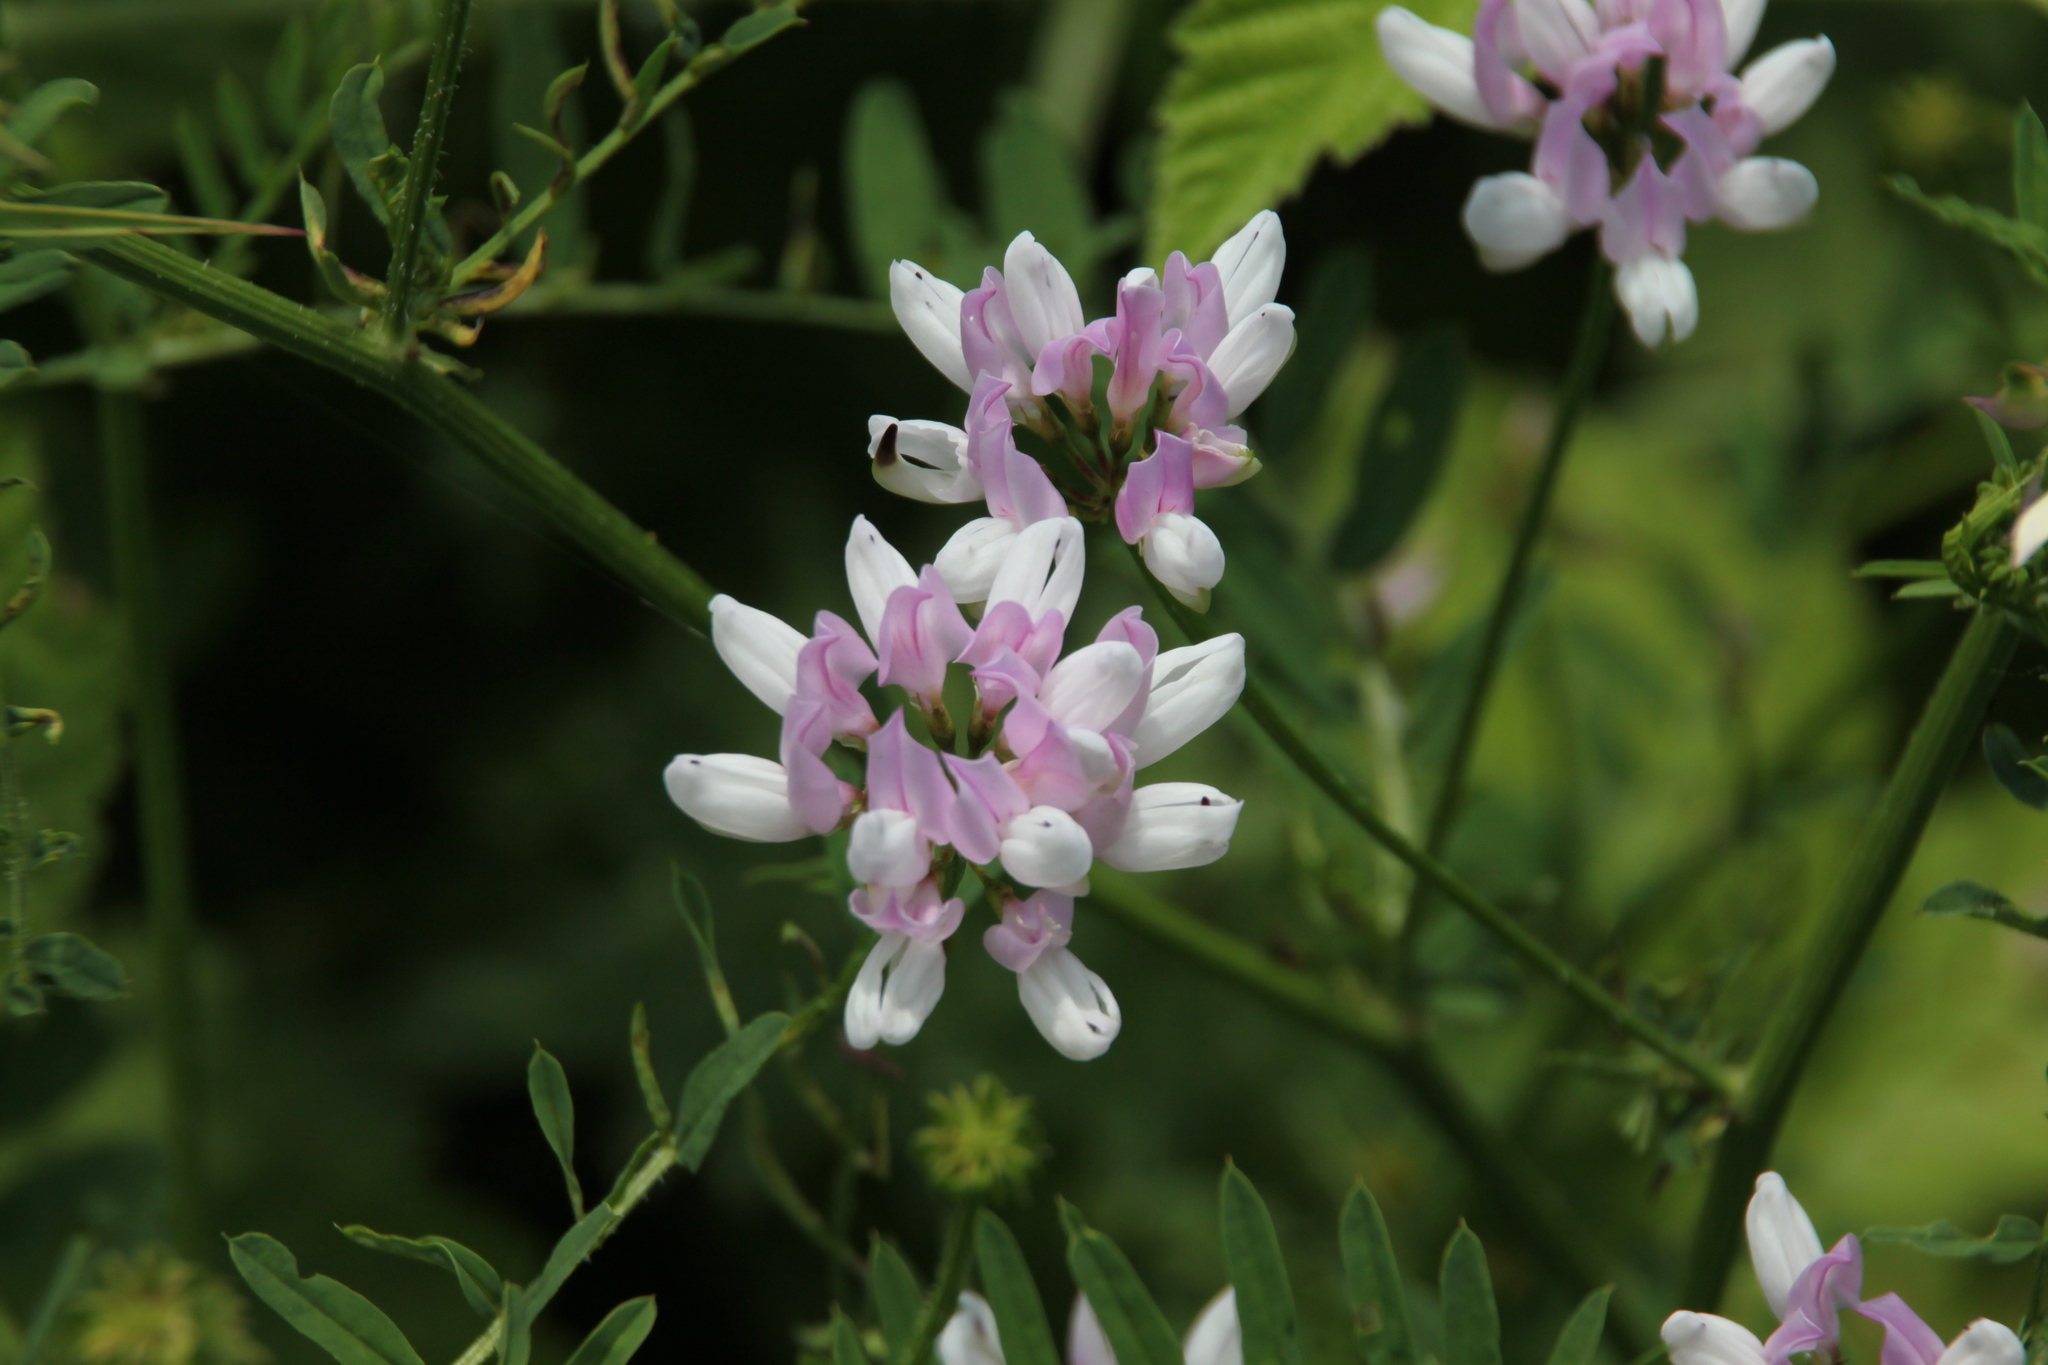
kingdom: Plantae
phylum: Tracheophyta
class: Magnoliopsida
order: Fabales
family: Fabaceae
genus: Coronilla
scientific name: Coronilla varia
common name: Crownvetch
